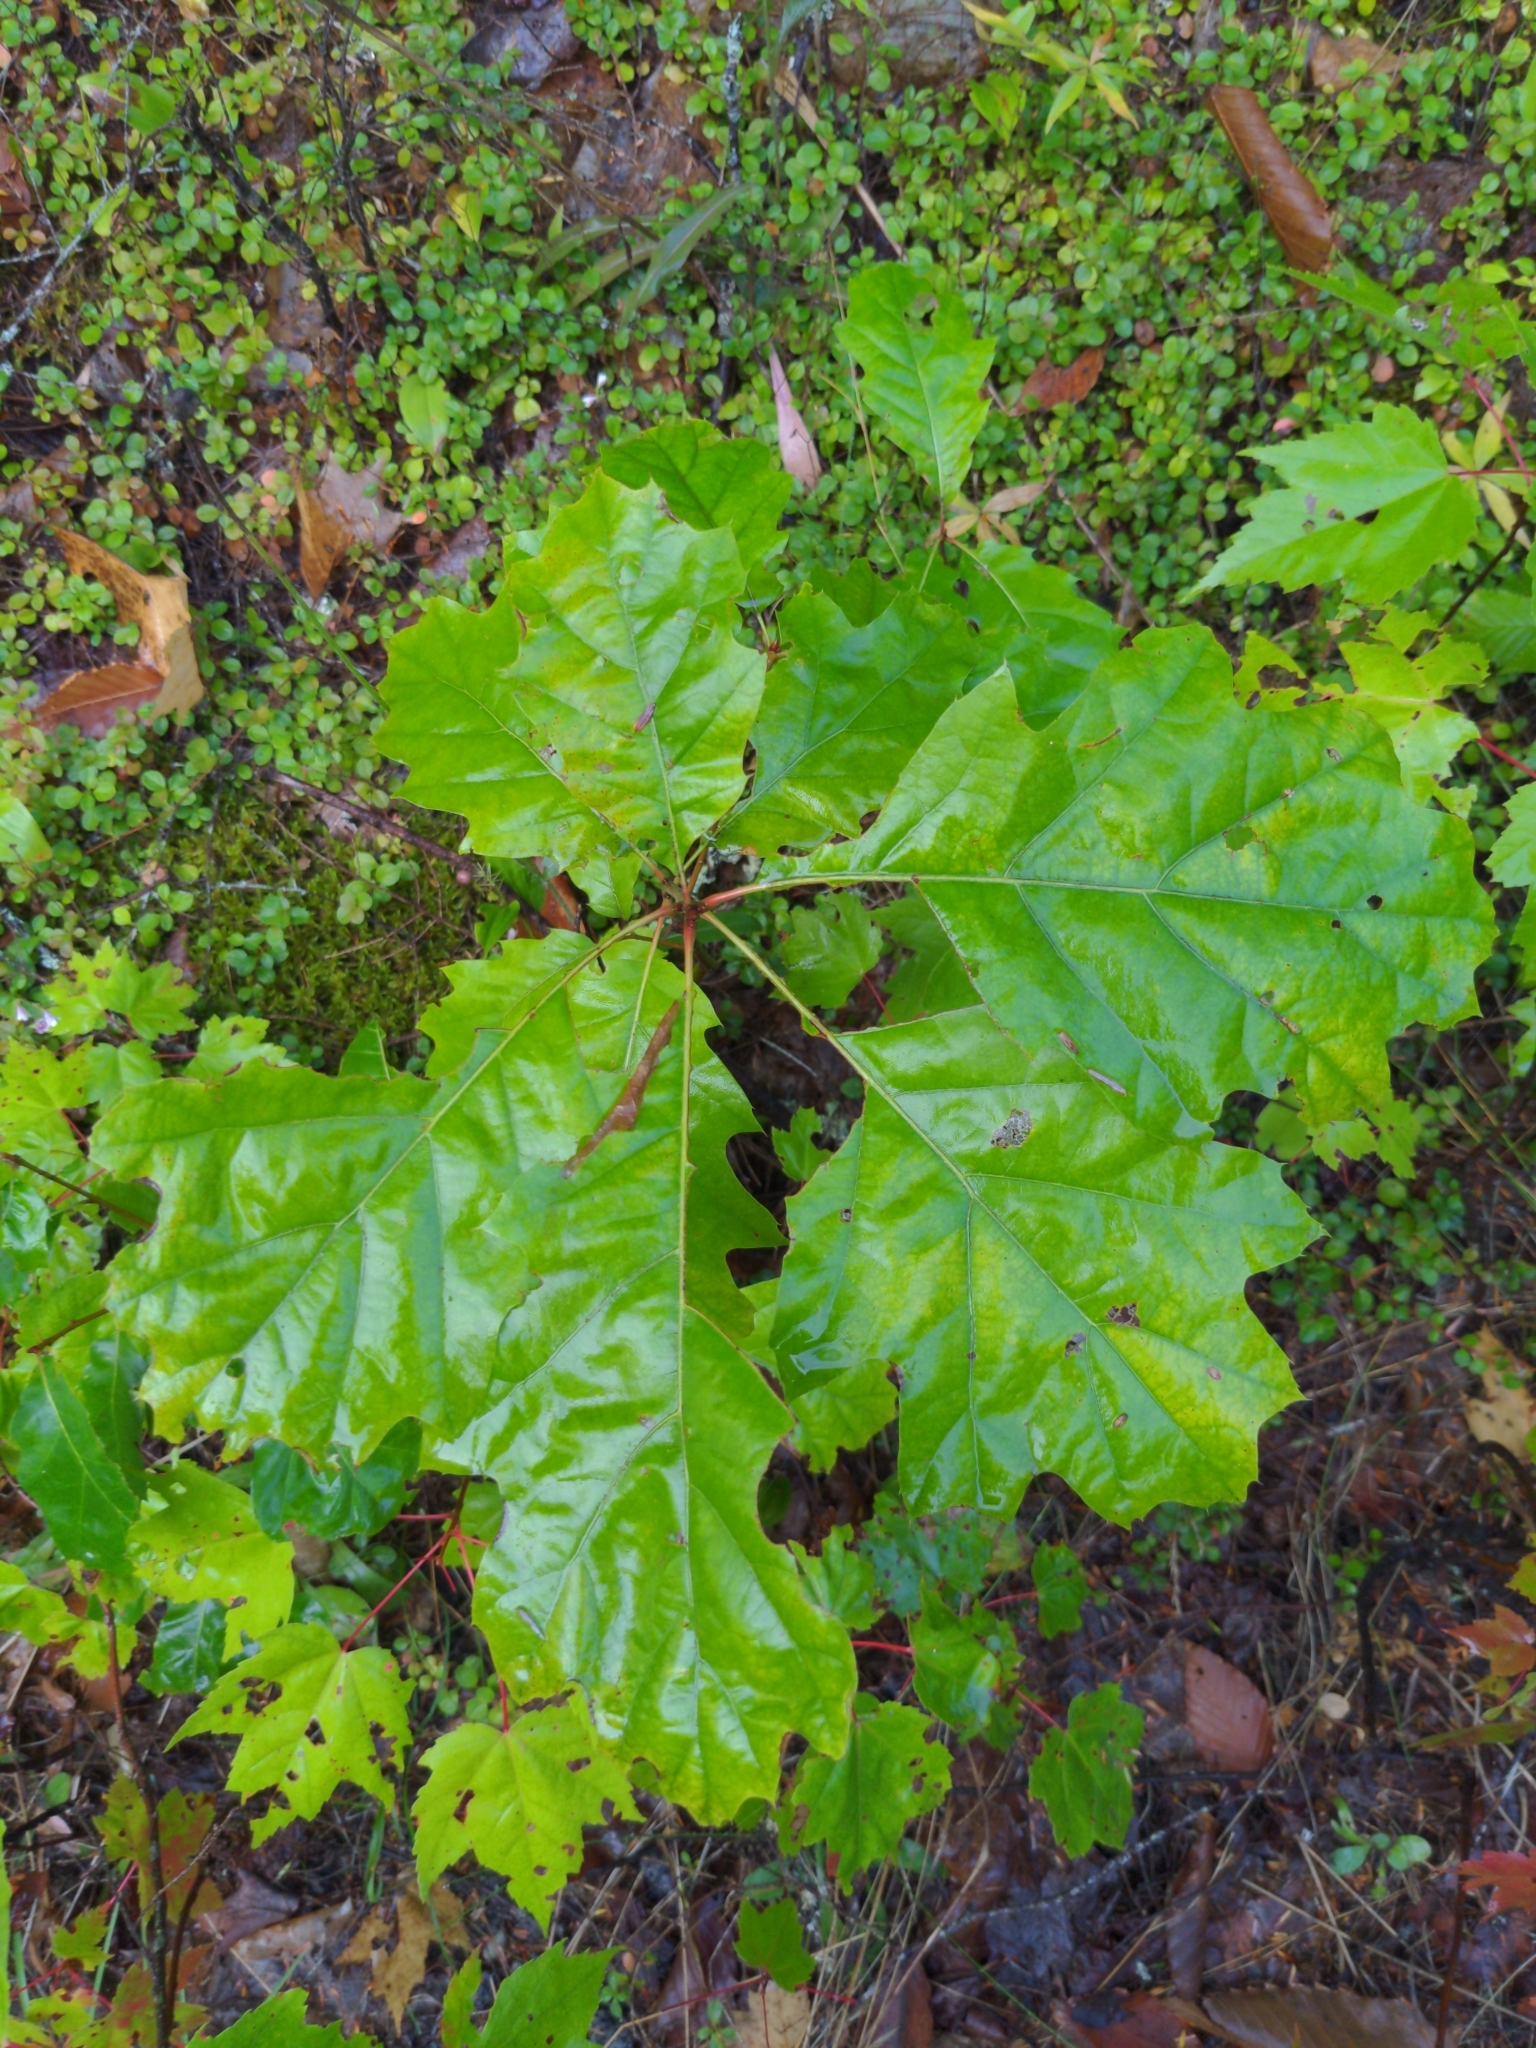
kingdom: Plantae
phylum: Tracheophyta
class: Magnoliopsida
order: Fagales
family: Fagaceae
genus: Quercus
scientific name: Quercus rubra
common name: Red oak
